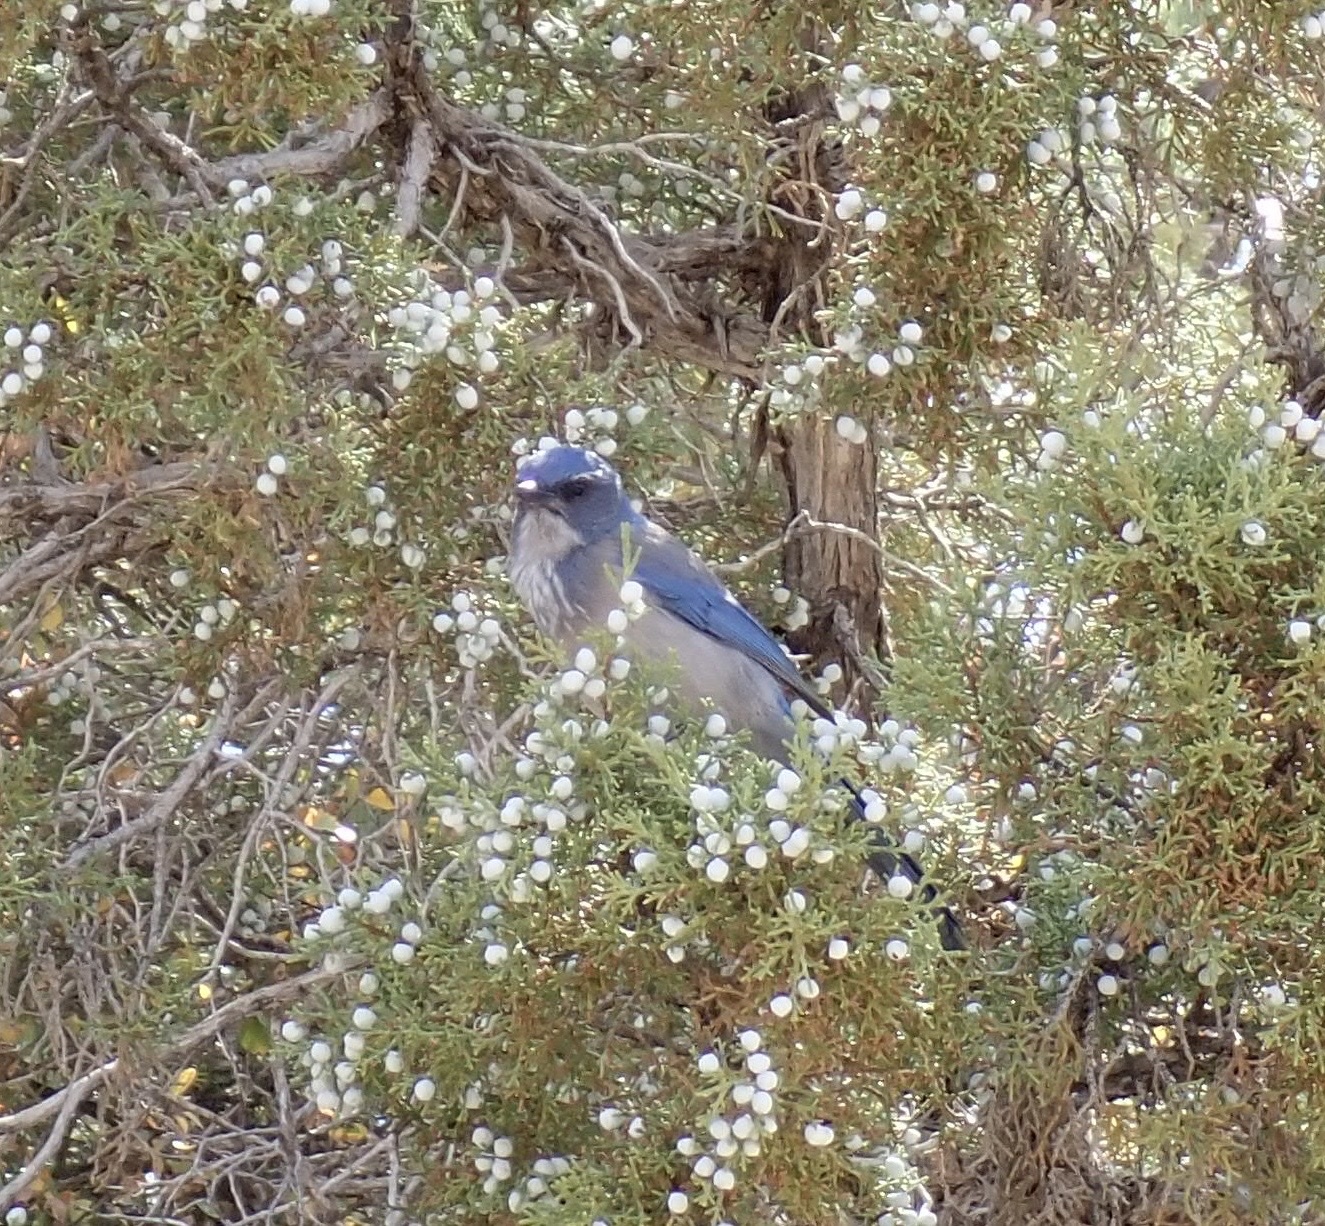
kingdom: Animalia
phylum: Chordata
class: Aves
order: Passeriformes
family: Corvidae
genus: Aphelocoma
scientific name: Aphelocoma woodhouseii
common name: Woodhouse's scrub-jay
